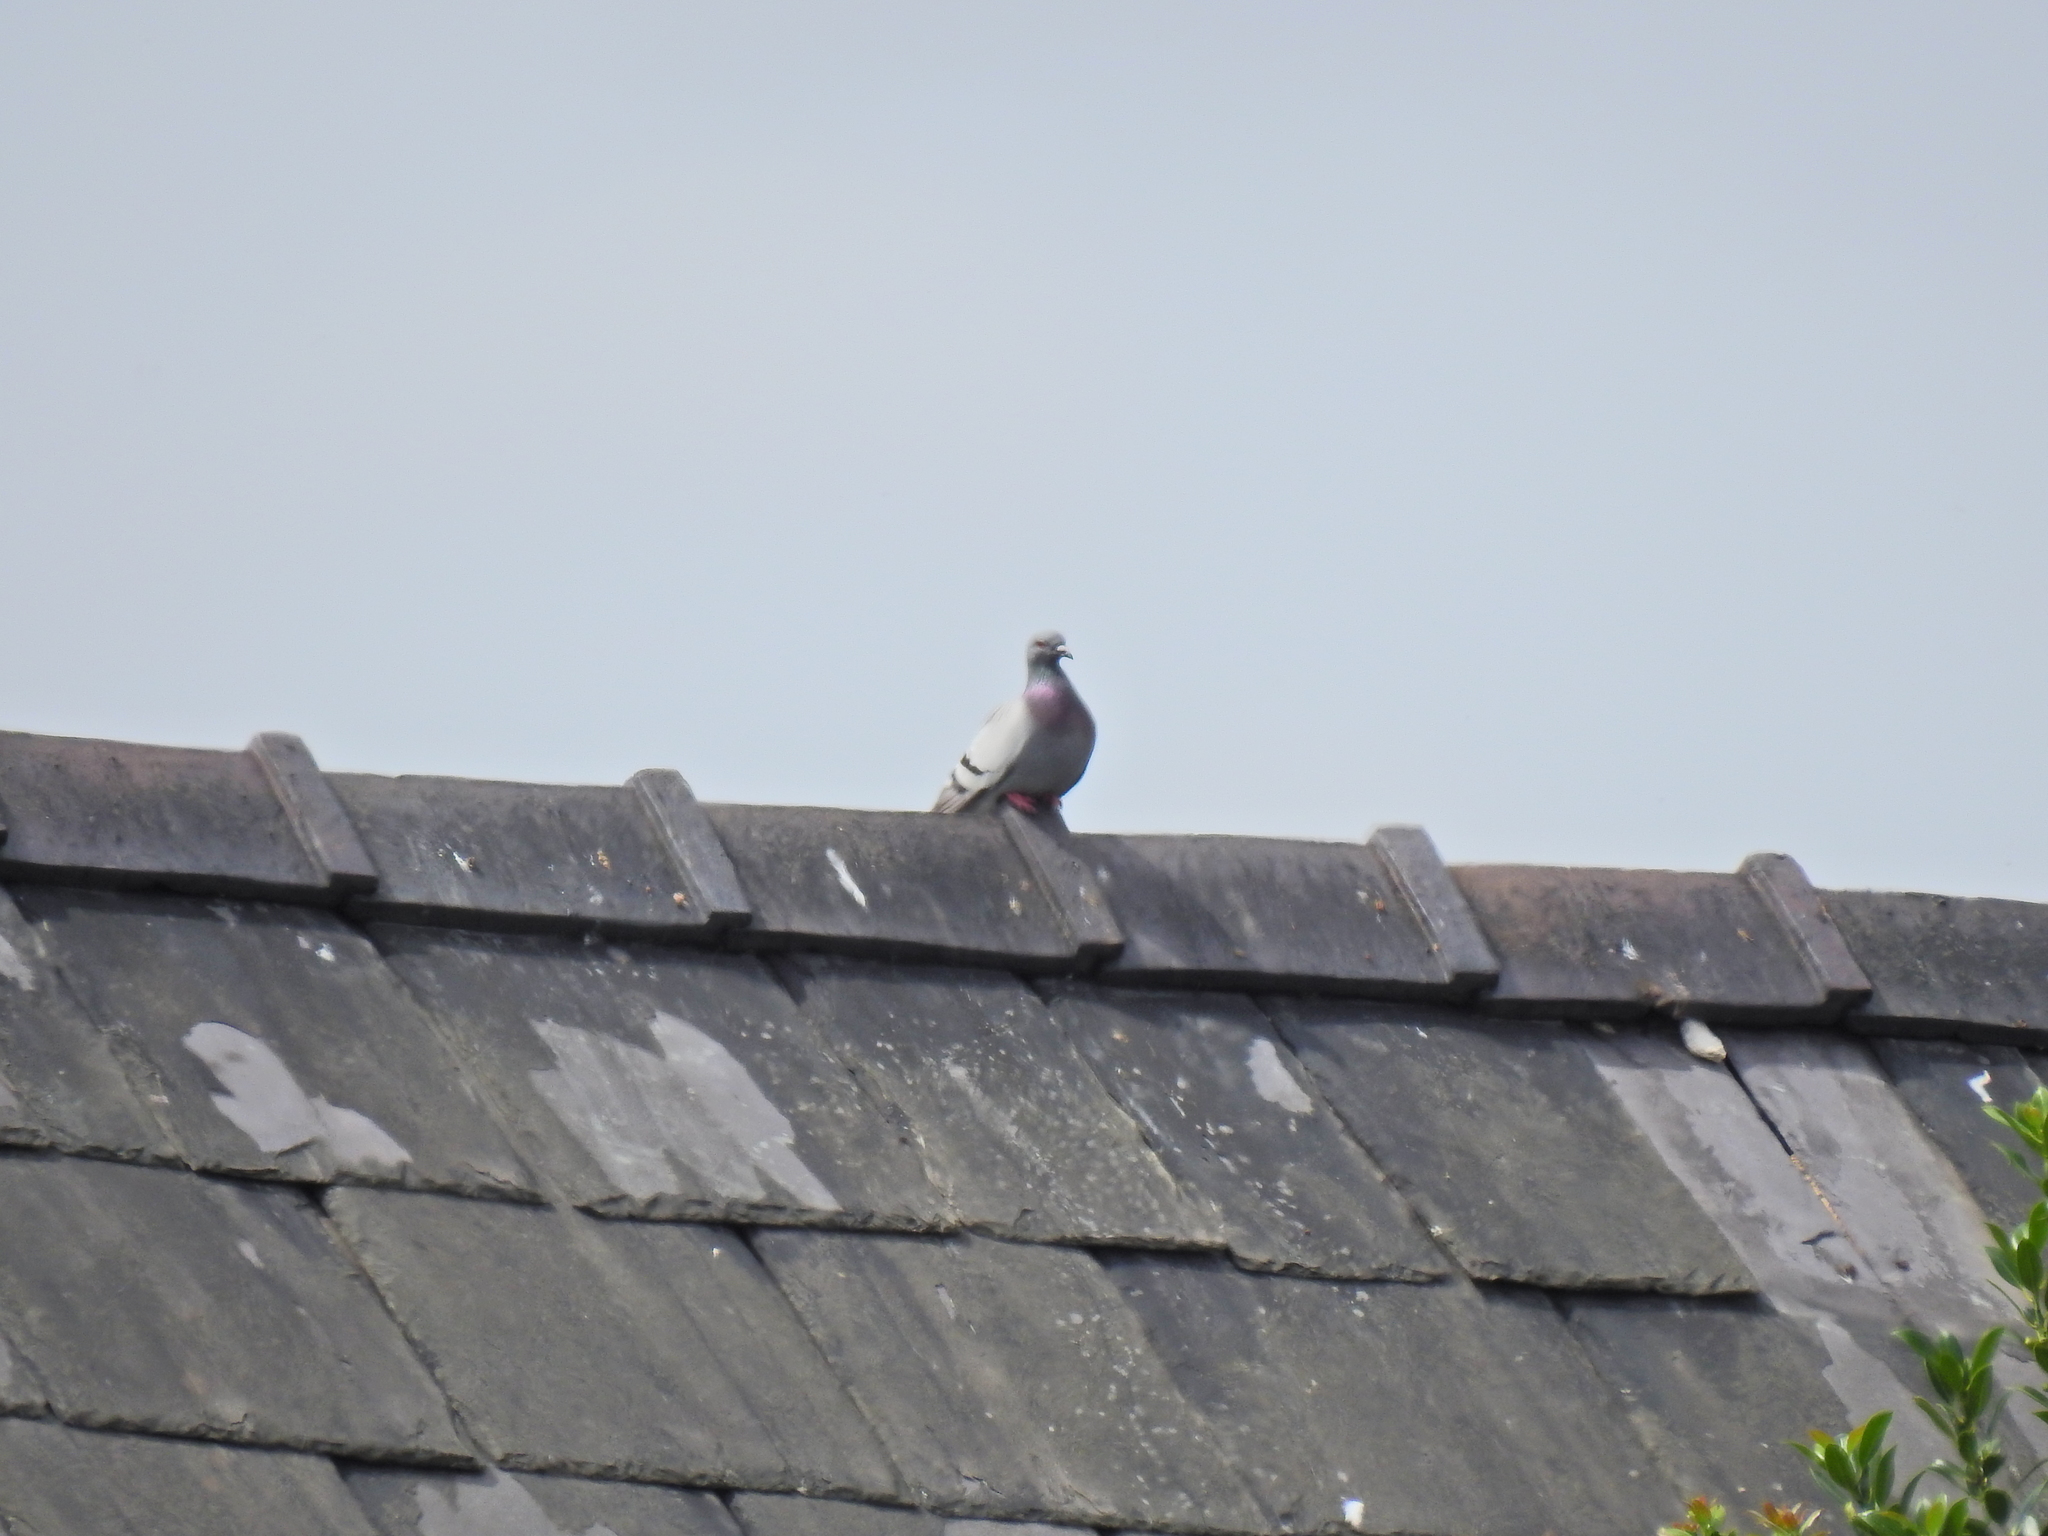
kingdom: Animalia
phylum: Chordata
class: Aves
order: Columbiformes
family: Columbidae
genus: Columba
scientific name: Columba livia
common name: Rock pigeon
